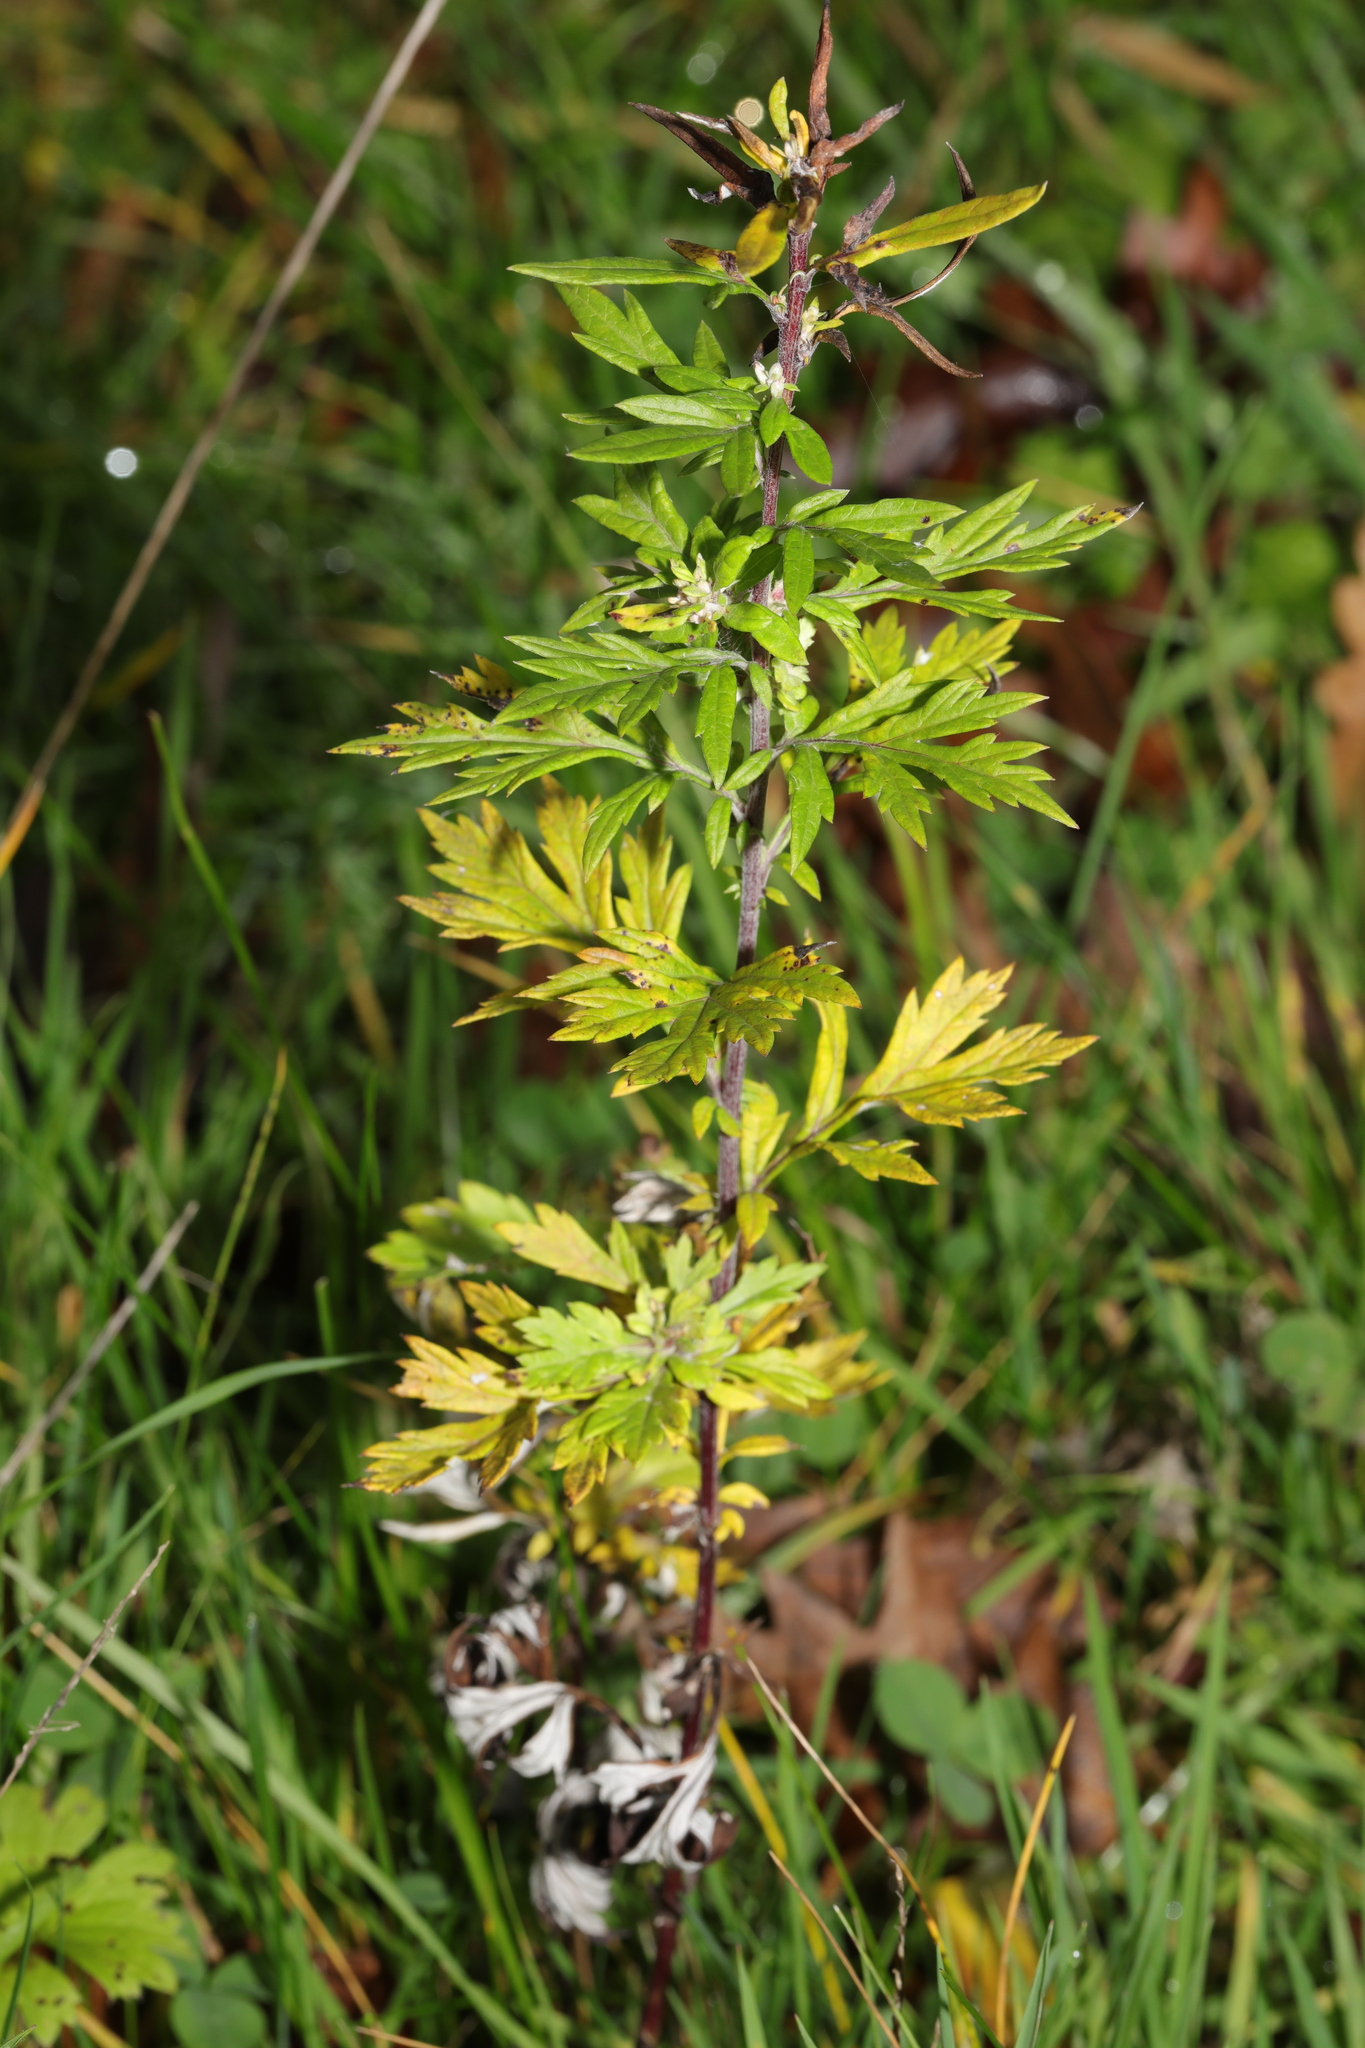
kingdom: Plantae
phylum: Tracheophyta
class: Magnoliopsida
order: Asterales
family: Asteraceae
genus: Artemisia
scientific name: Artemisia vulgaris
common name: Mugwort
